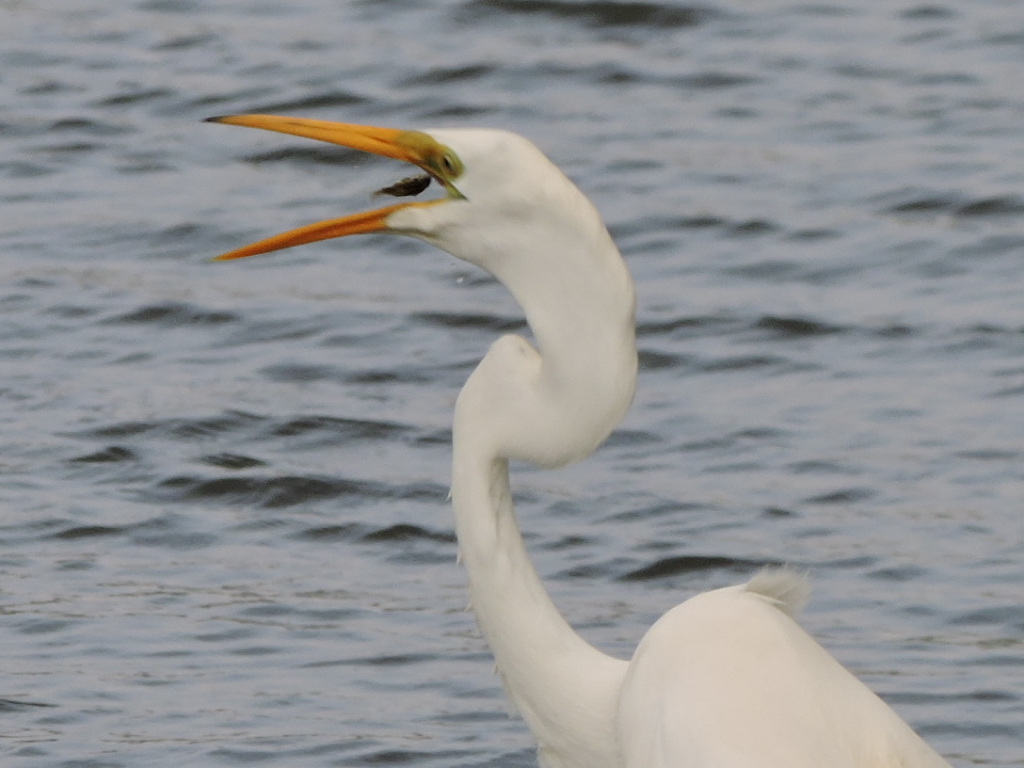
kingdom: Animalia
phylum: Chordata
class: Aves
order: Pelecaniformes
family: Ardeidae
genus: Ardea
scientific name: Ardea alba
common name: Great egret
